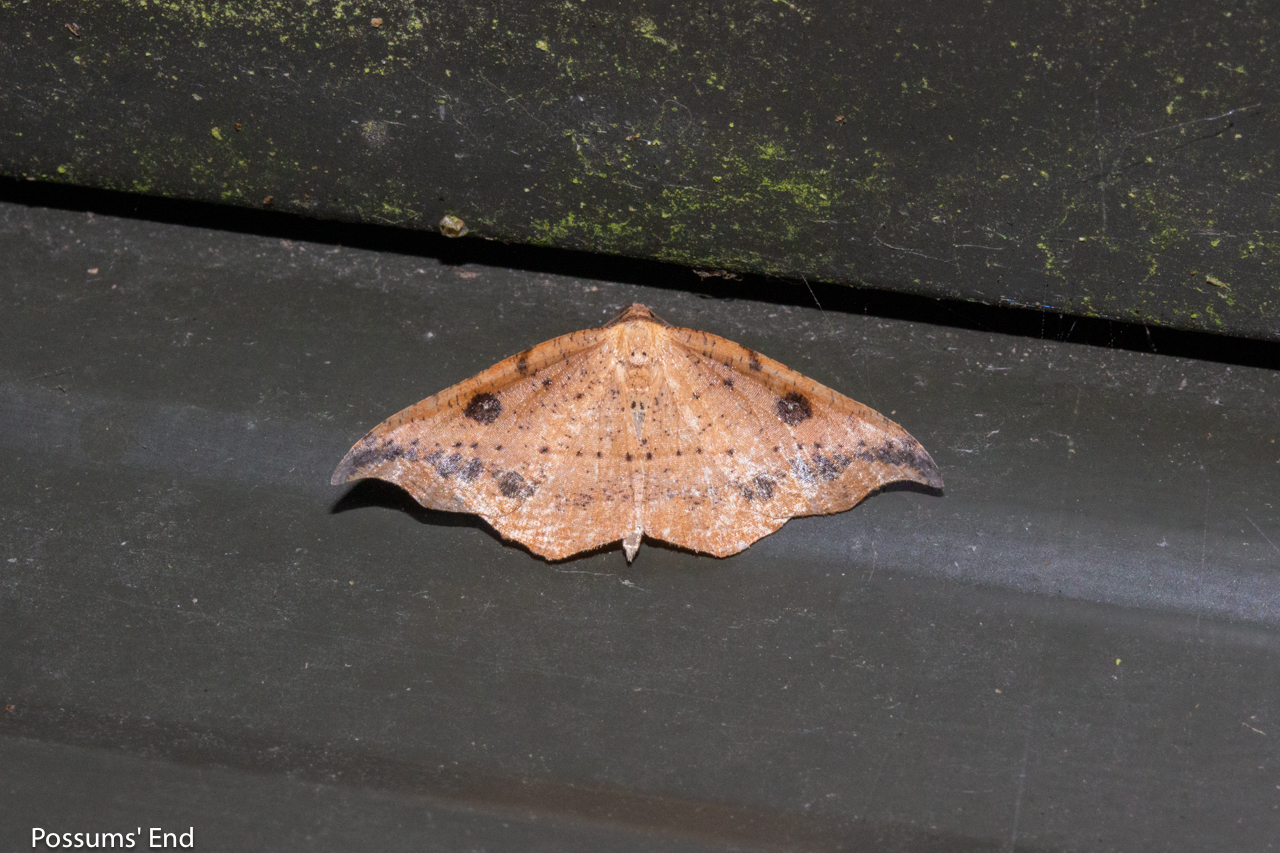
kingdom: Animalia
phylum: Arthropoda
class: Insecta
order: Lepidoptera
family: Geometridae
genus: Sarisa
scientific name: Sarisa muriferata
